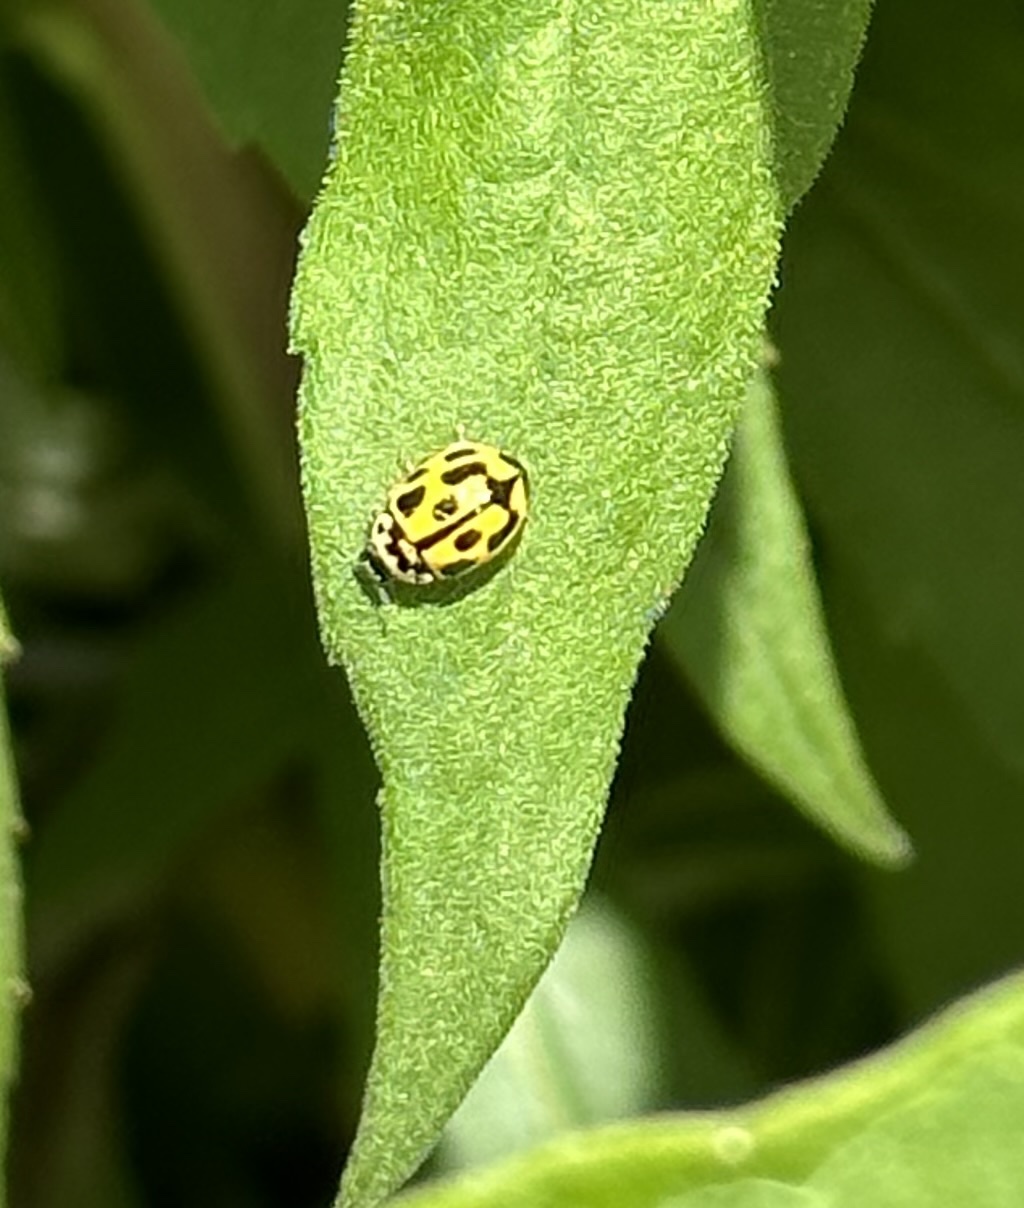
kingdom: Animalia
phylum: Arthropoda
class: Insecta
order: Coleoptera
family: Coccinellidae
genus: Propylaea
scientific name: Propylaea quatuordecimpunctata
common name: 14-spotted ladybird beetle
